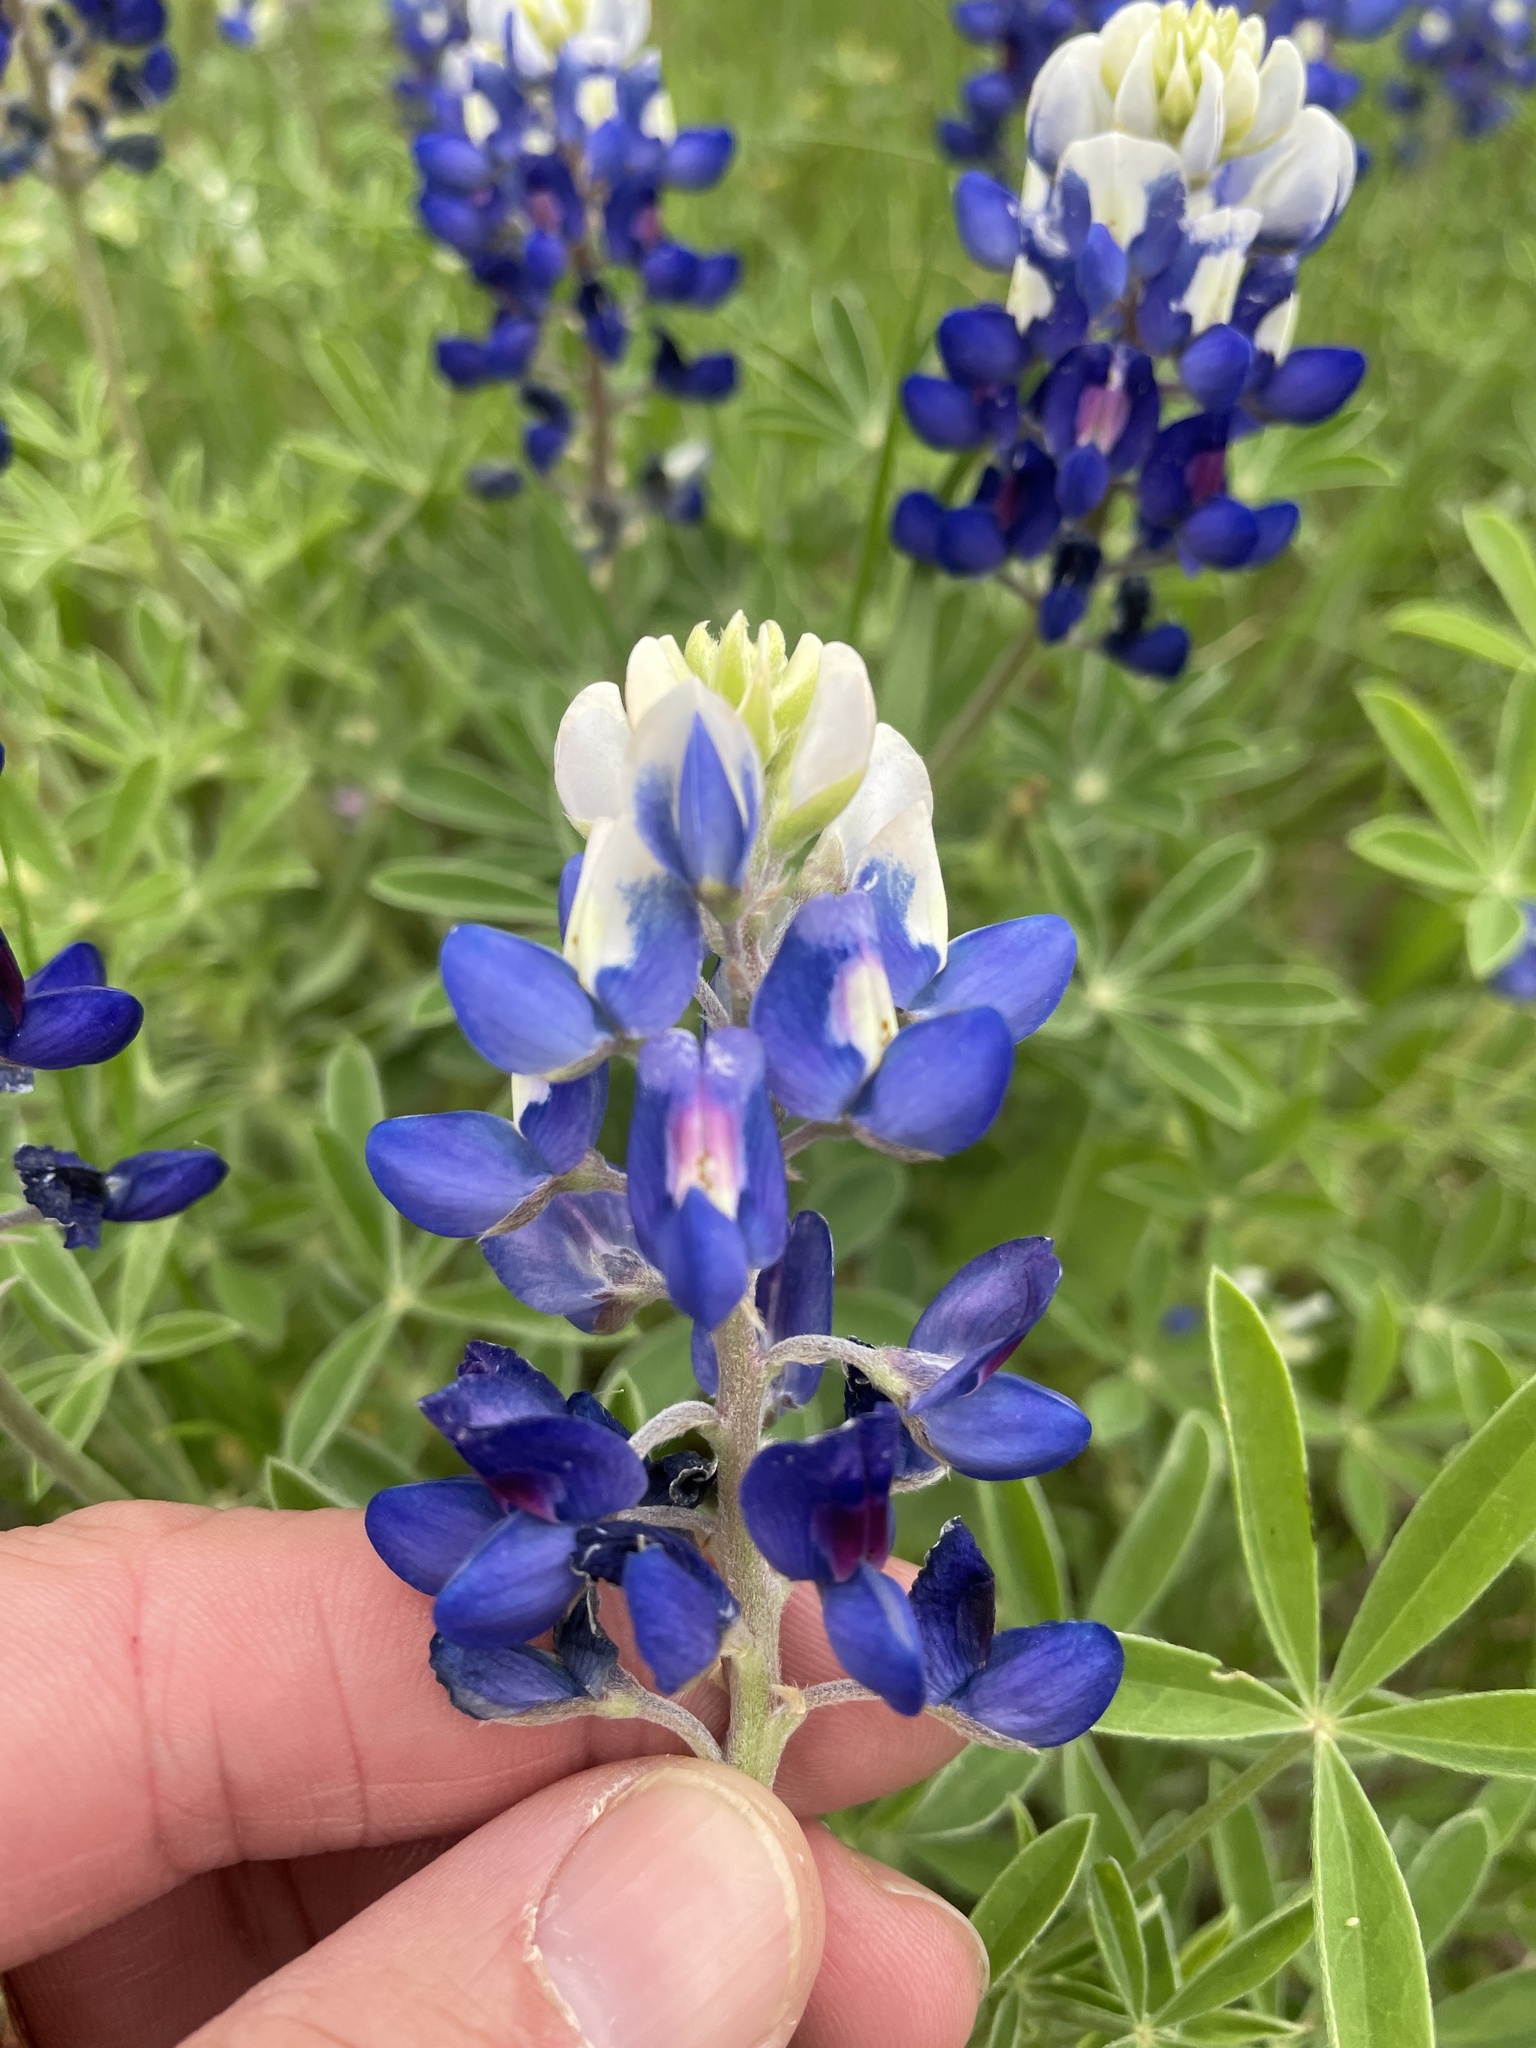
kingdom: Plantae
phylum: Tracheophyta
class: Magnoliopsida
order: Fabales
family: Fabaceae
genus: Lupinus
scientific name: Lupinus texensis
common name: Texas bluebonnet
